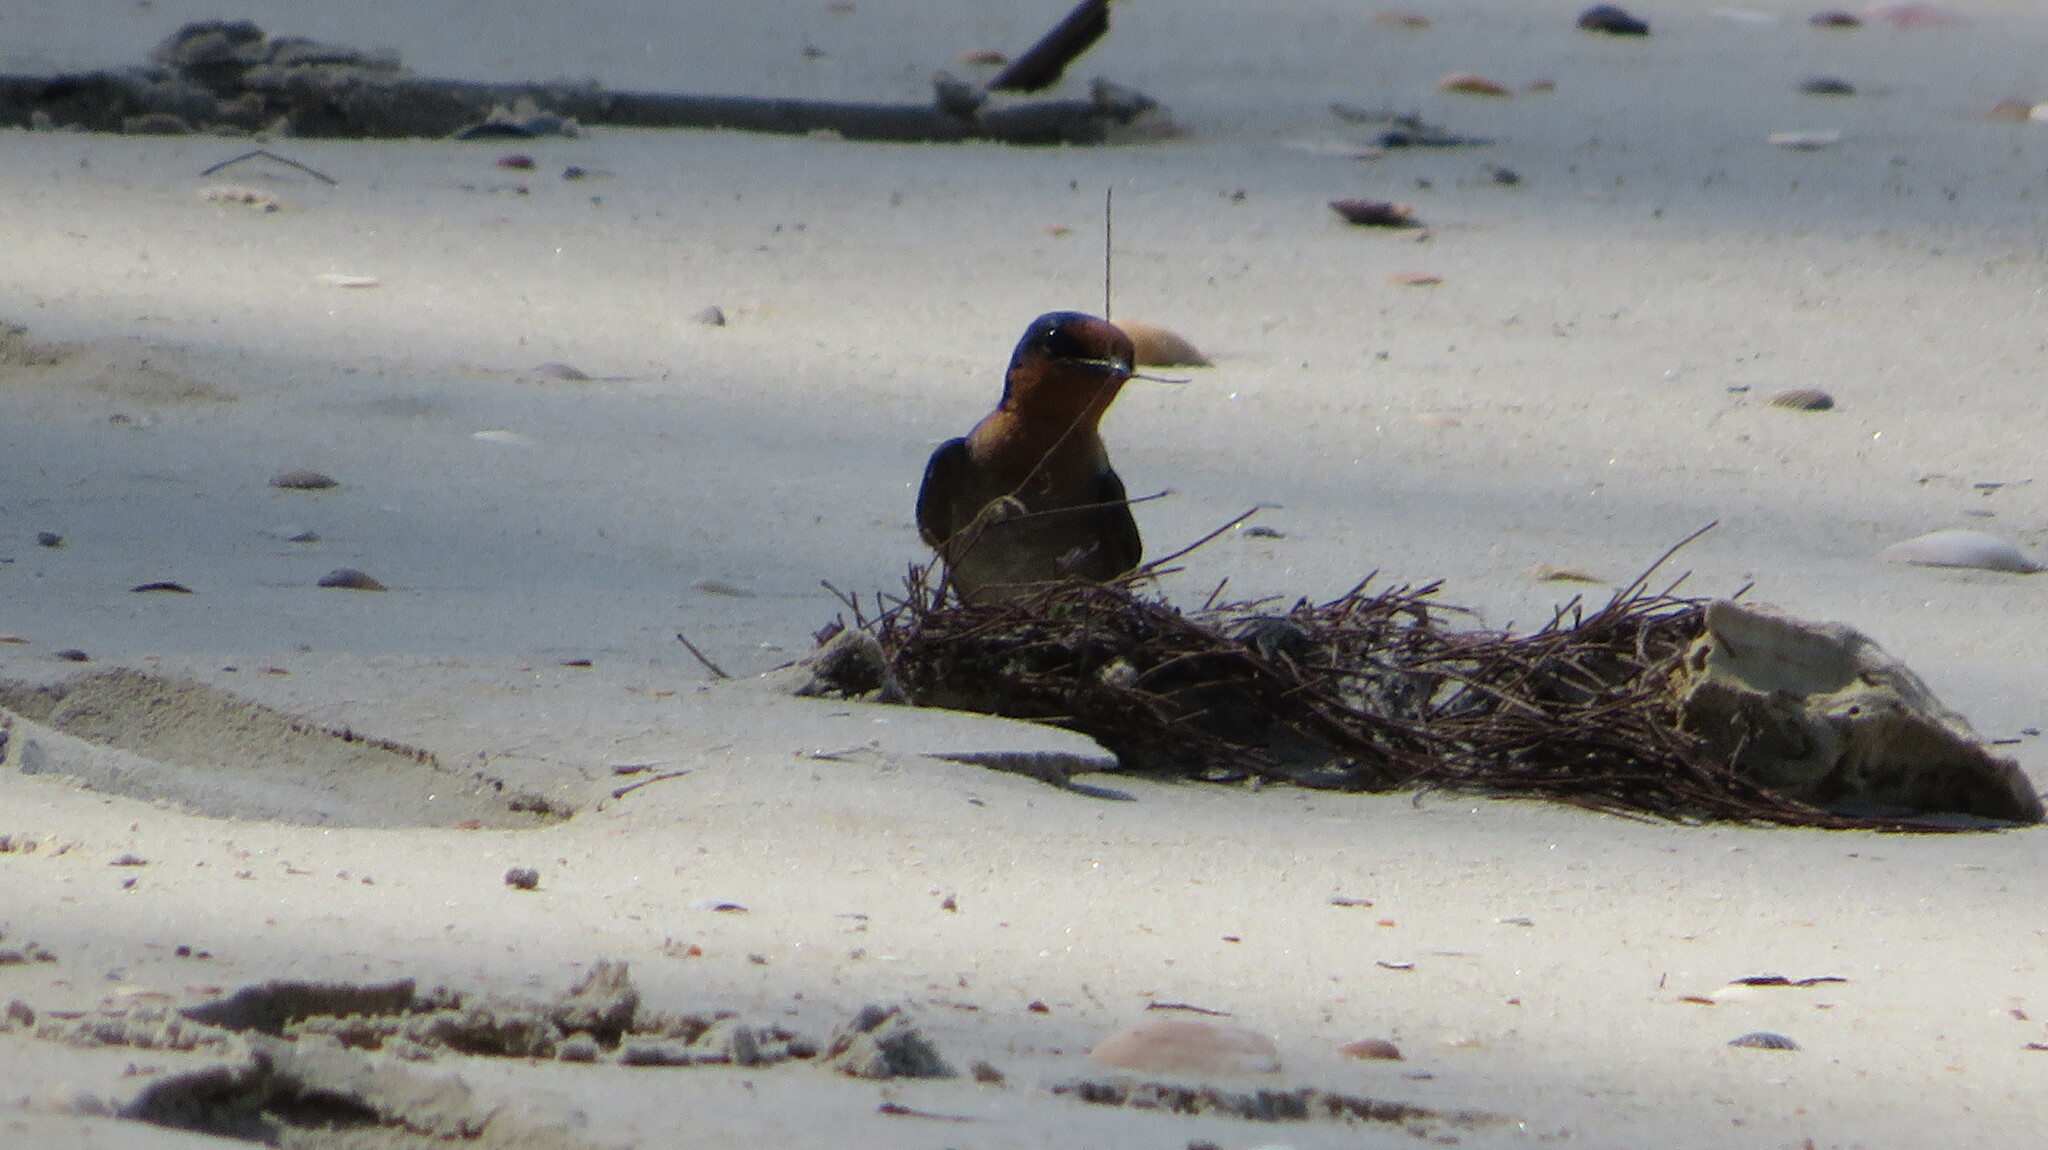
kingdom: Animalia
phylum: Chordata
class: Aves
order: Passeriformes
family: Hirundinidae
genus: Hirundo
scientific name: Hirundo tahitica
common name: Pacific swallow
